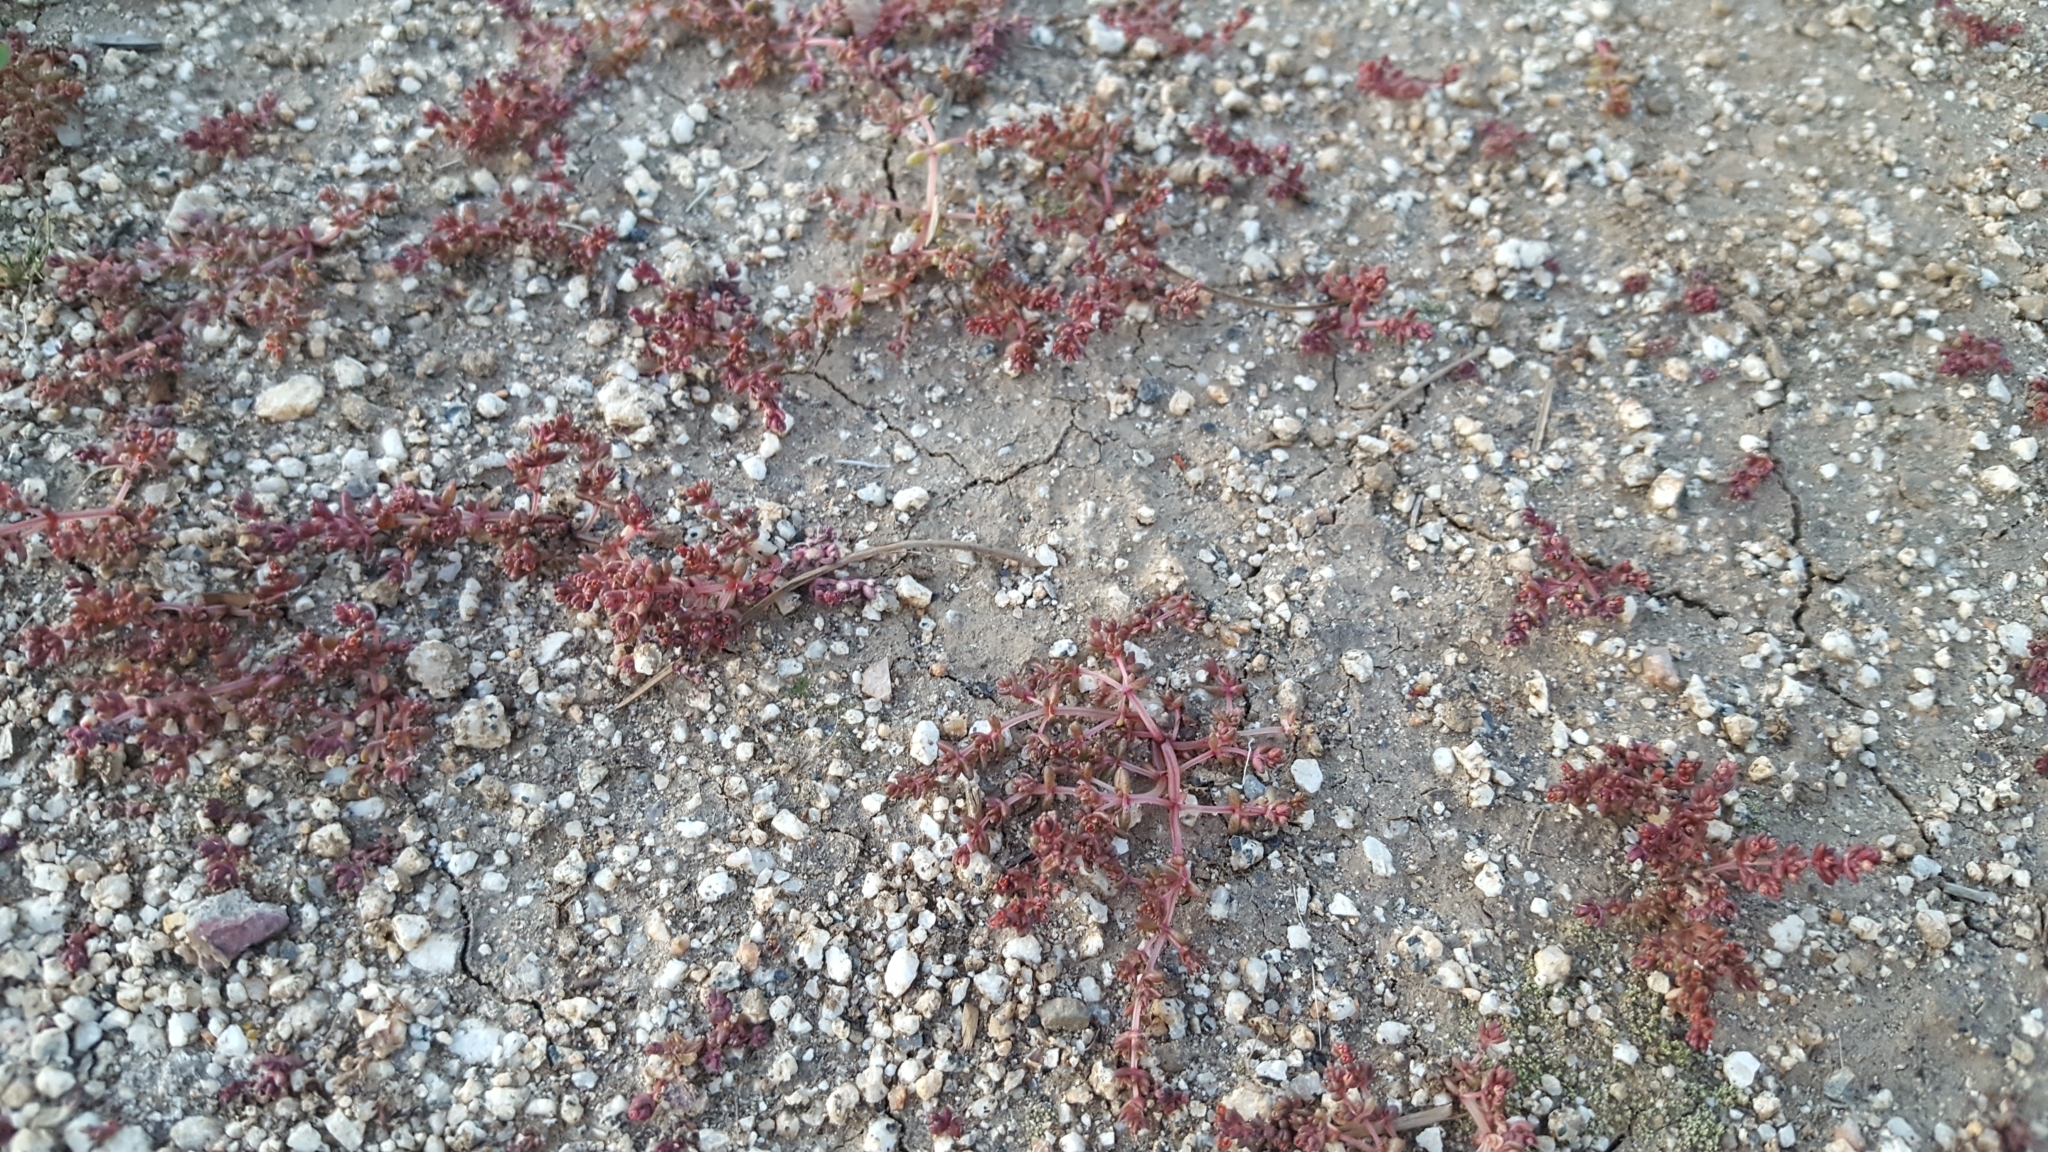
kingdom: Plantae
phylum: Tracheophyta
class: Magnoliopsida
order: Saxifragales
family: Crassulaceae
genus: Crassula
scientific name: Crassula connata
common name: Erect pygmyweed
